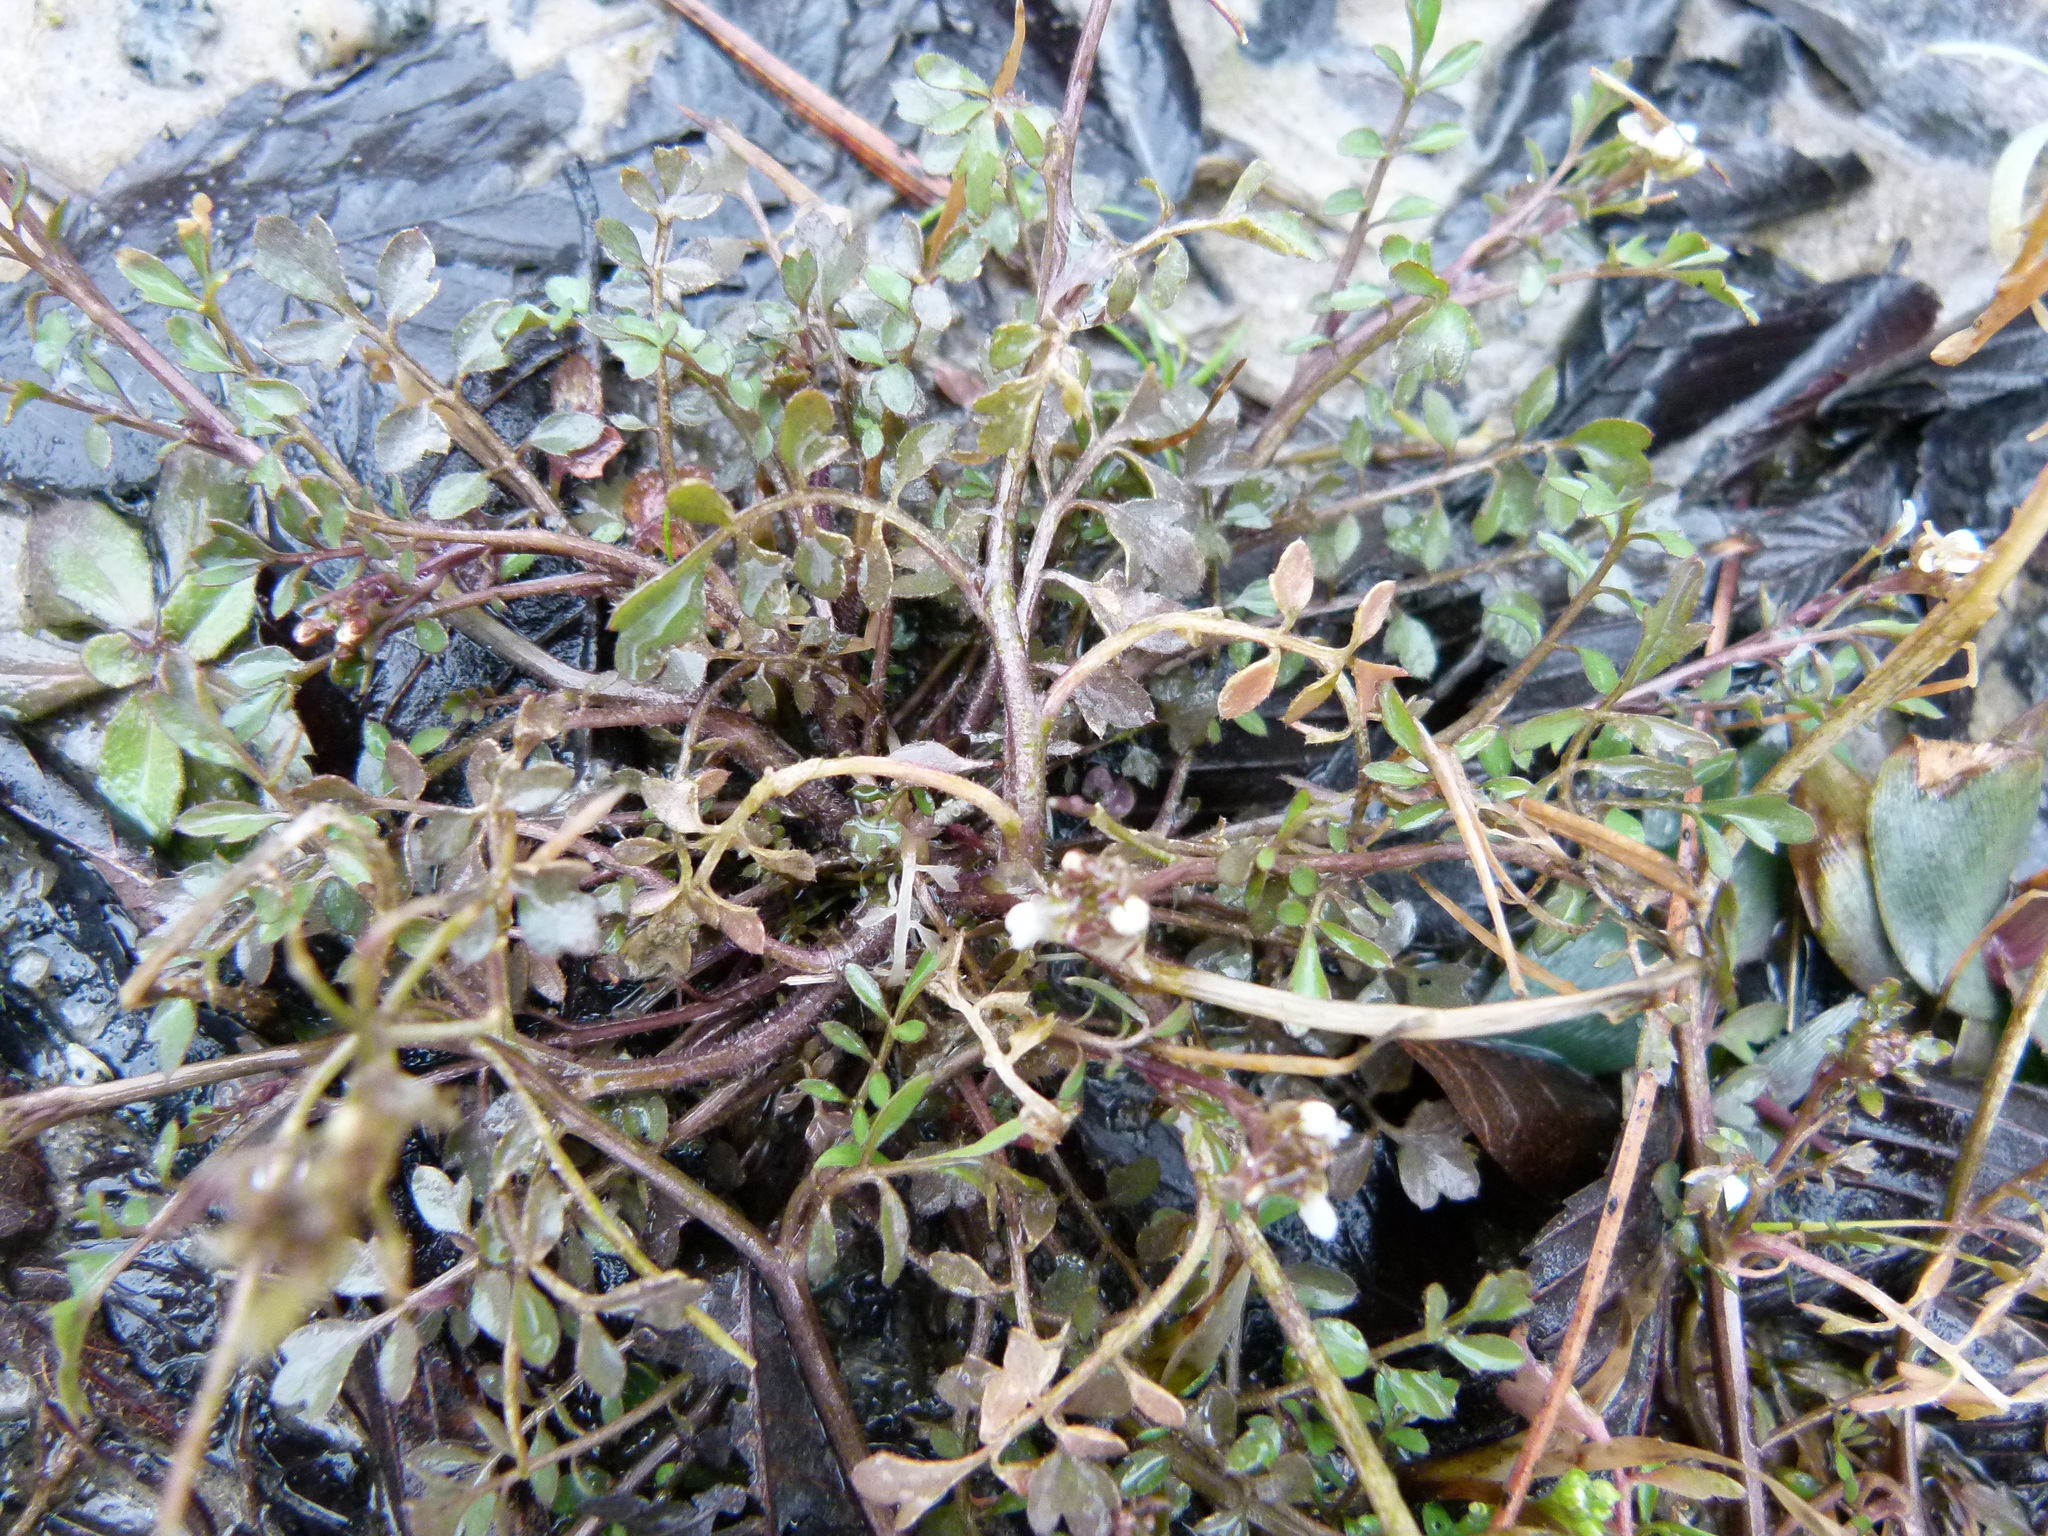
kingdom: Plantae
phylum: Tracheophyta
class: Magnoliopsida
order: Brassicales
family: Brassicaceae
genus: Cardamine
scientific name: Cardamine hirsuta
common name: Hairy bittercress
